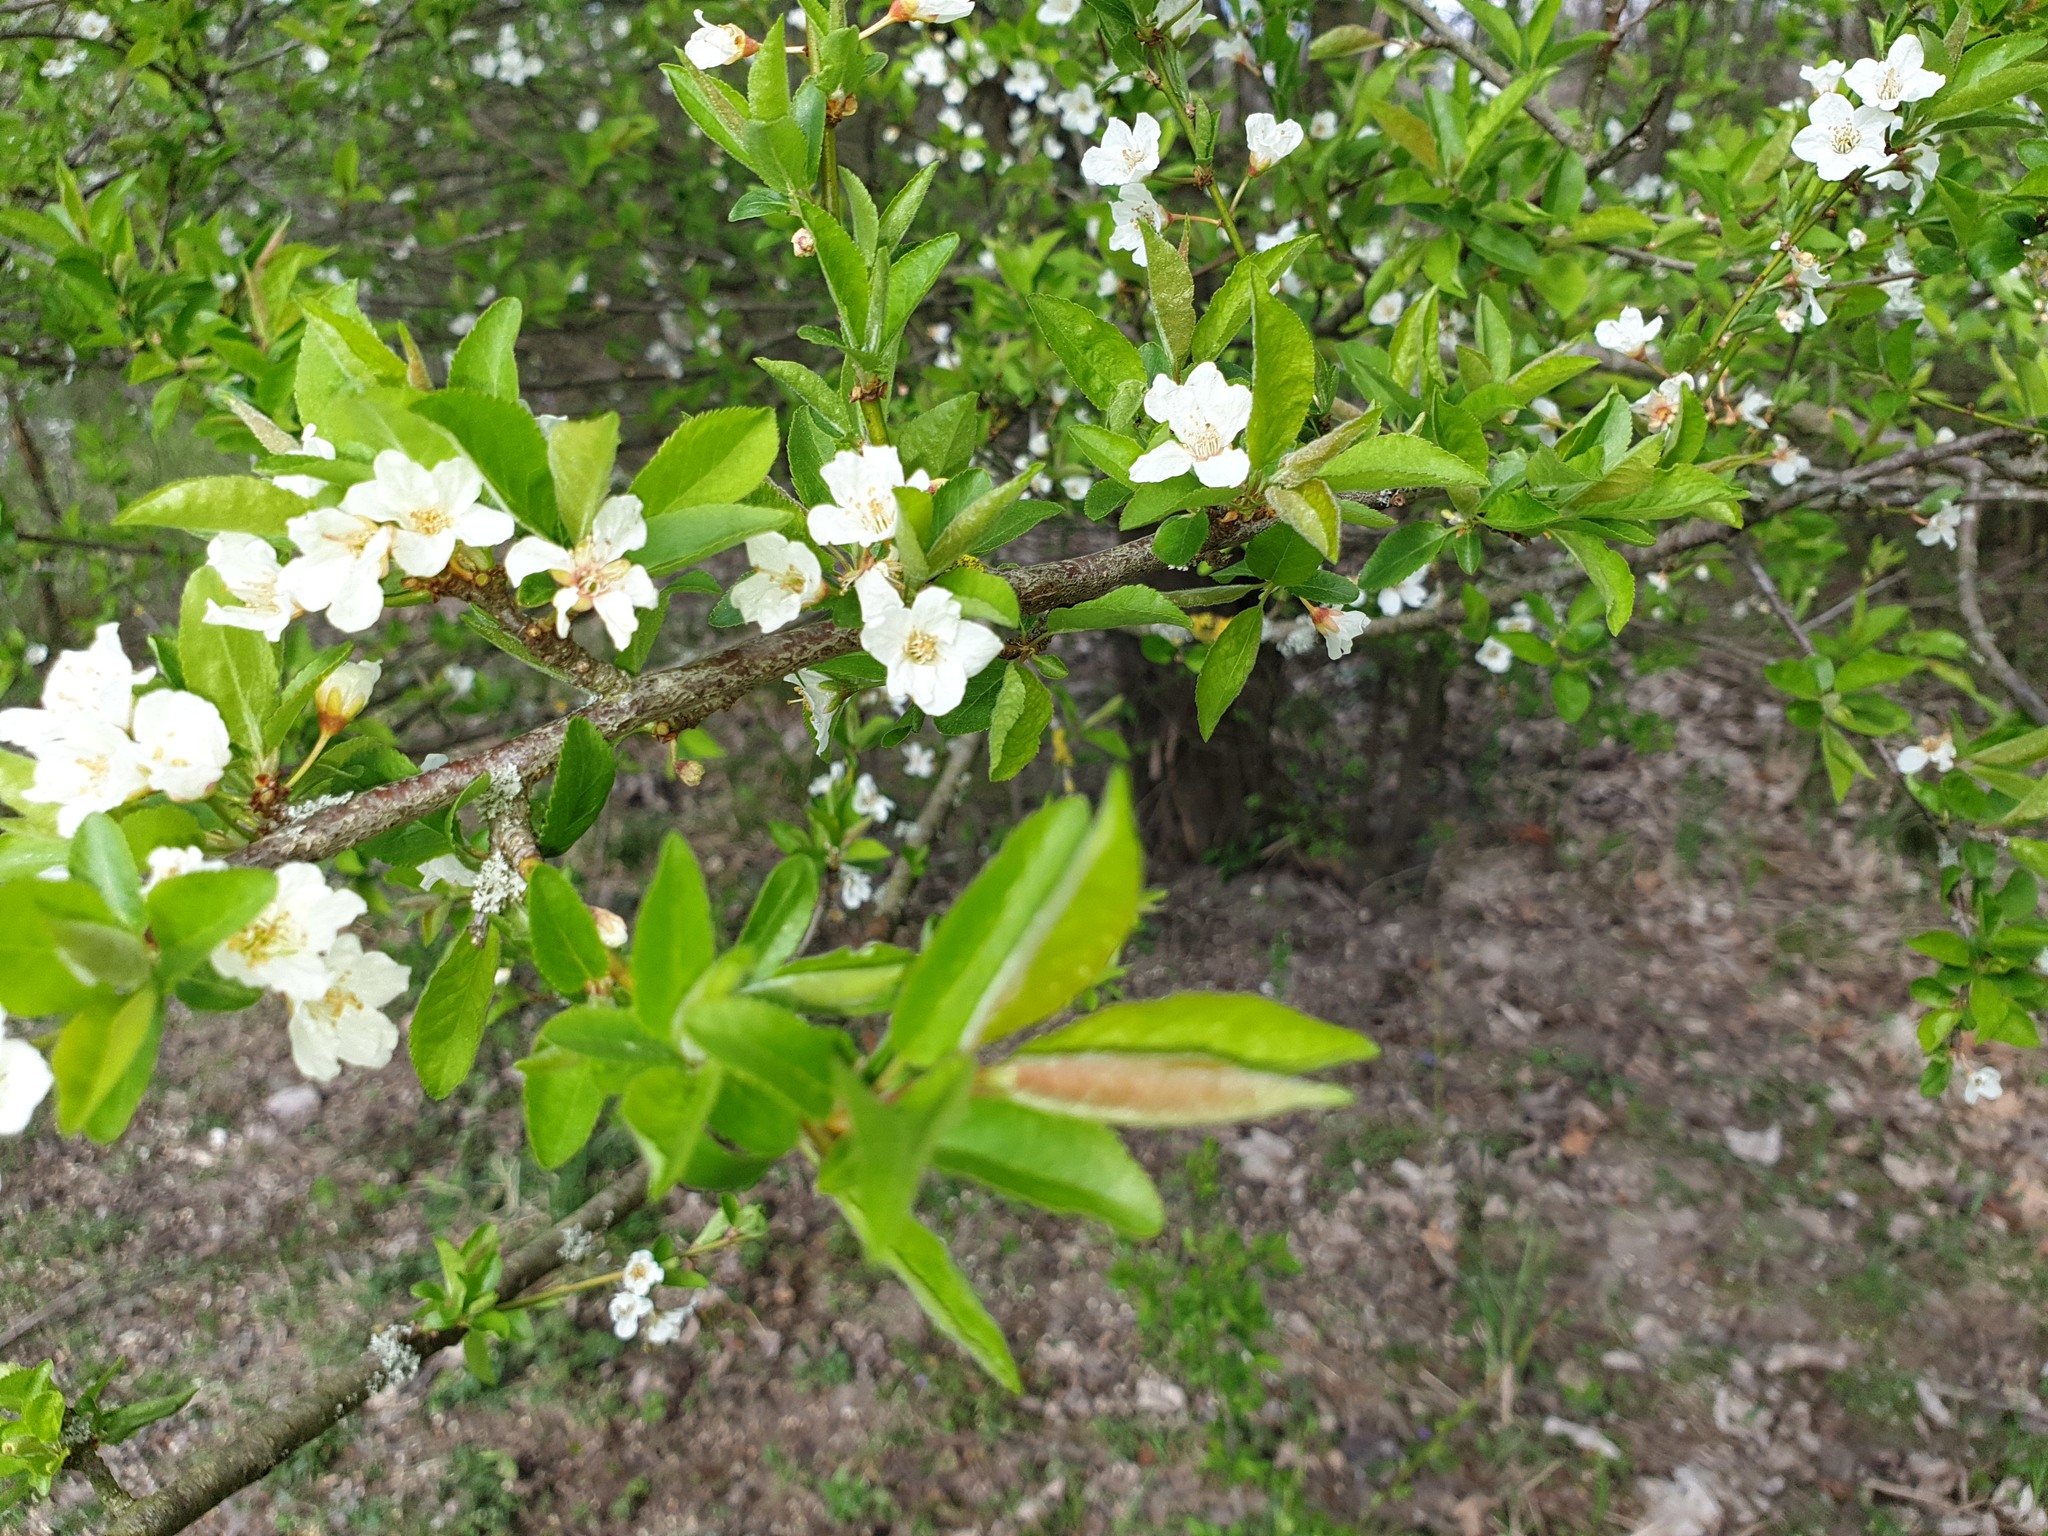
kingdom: Plantae
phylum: Tracheophyta
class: Magnoliopsida
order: Rosales
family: Rosaceae
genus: Prunus
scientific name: Prunus cerasifera
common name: Cherry plum
